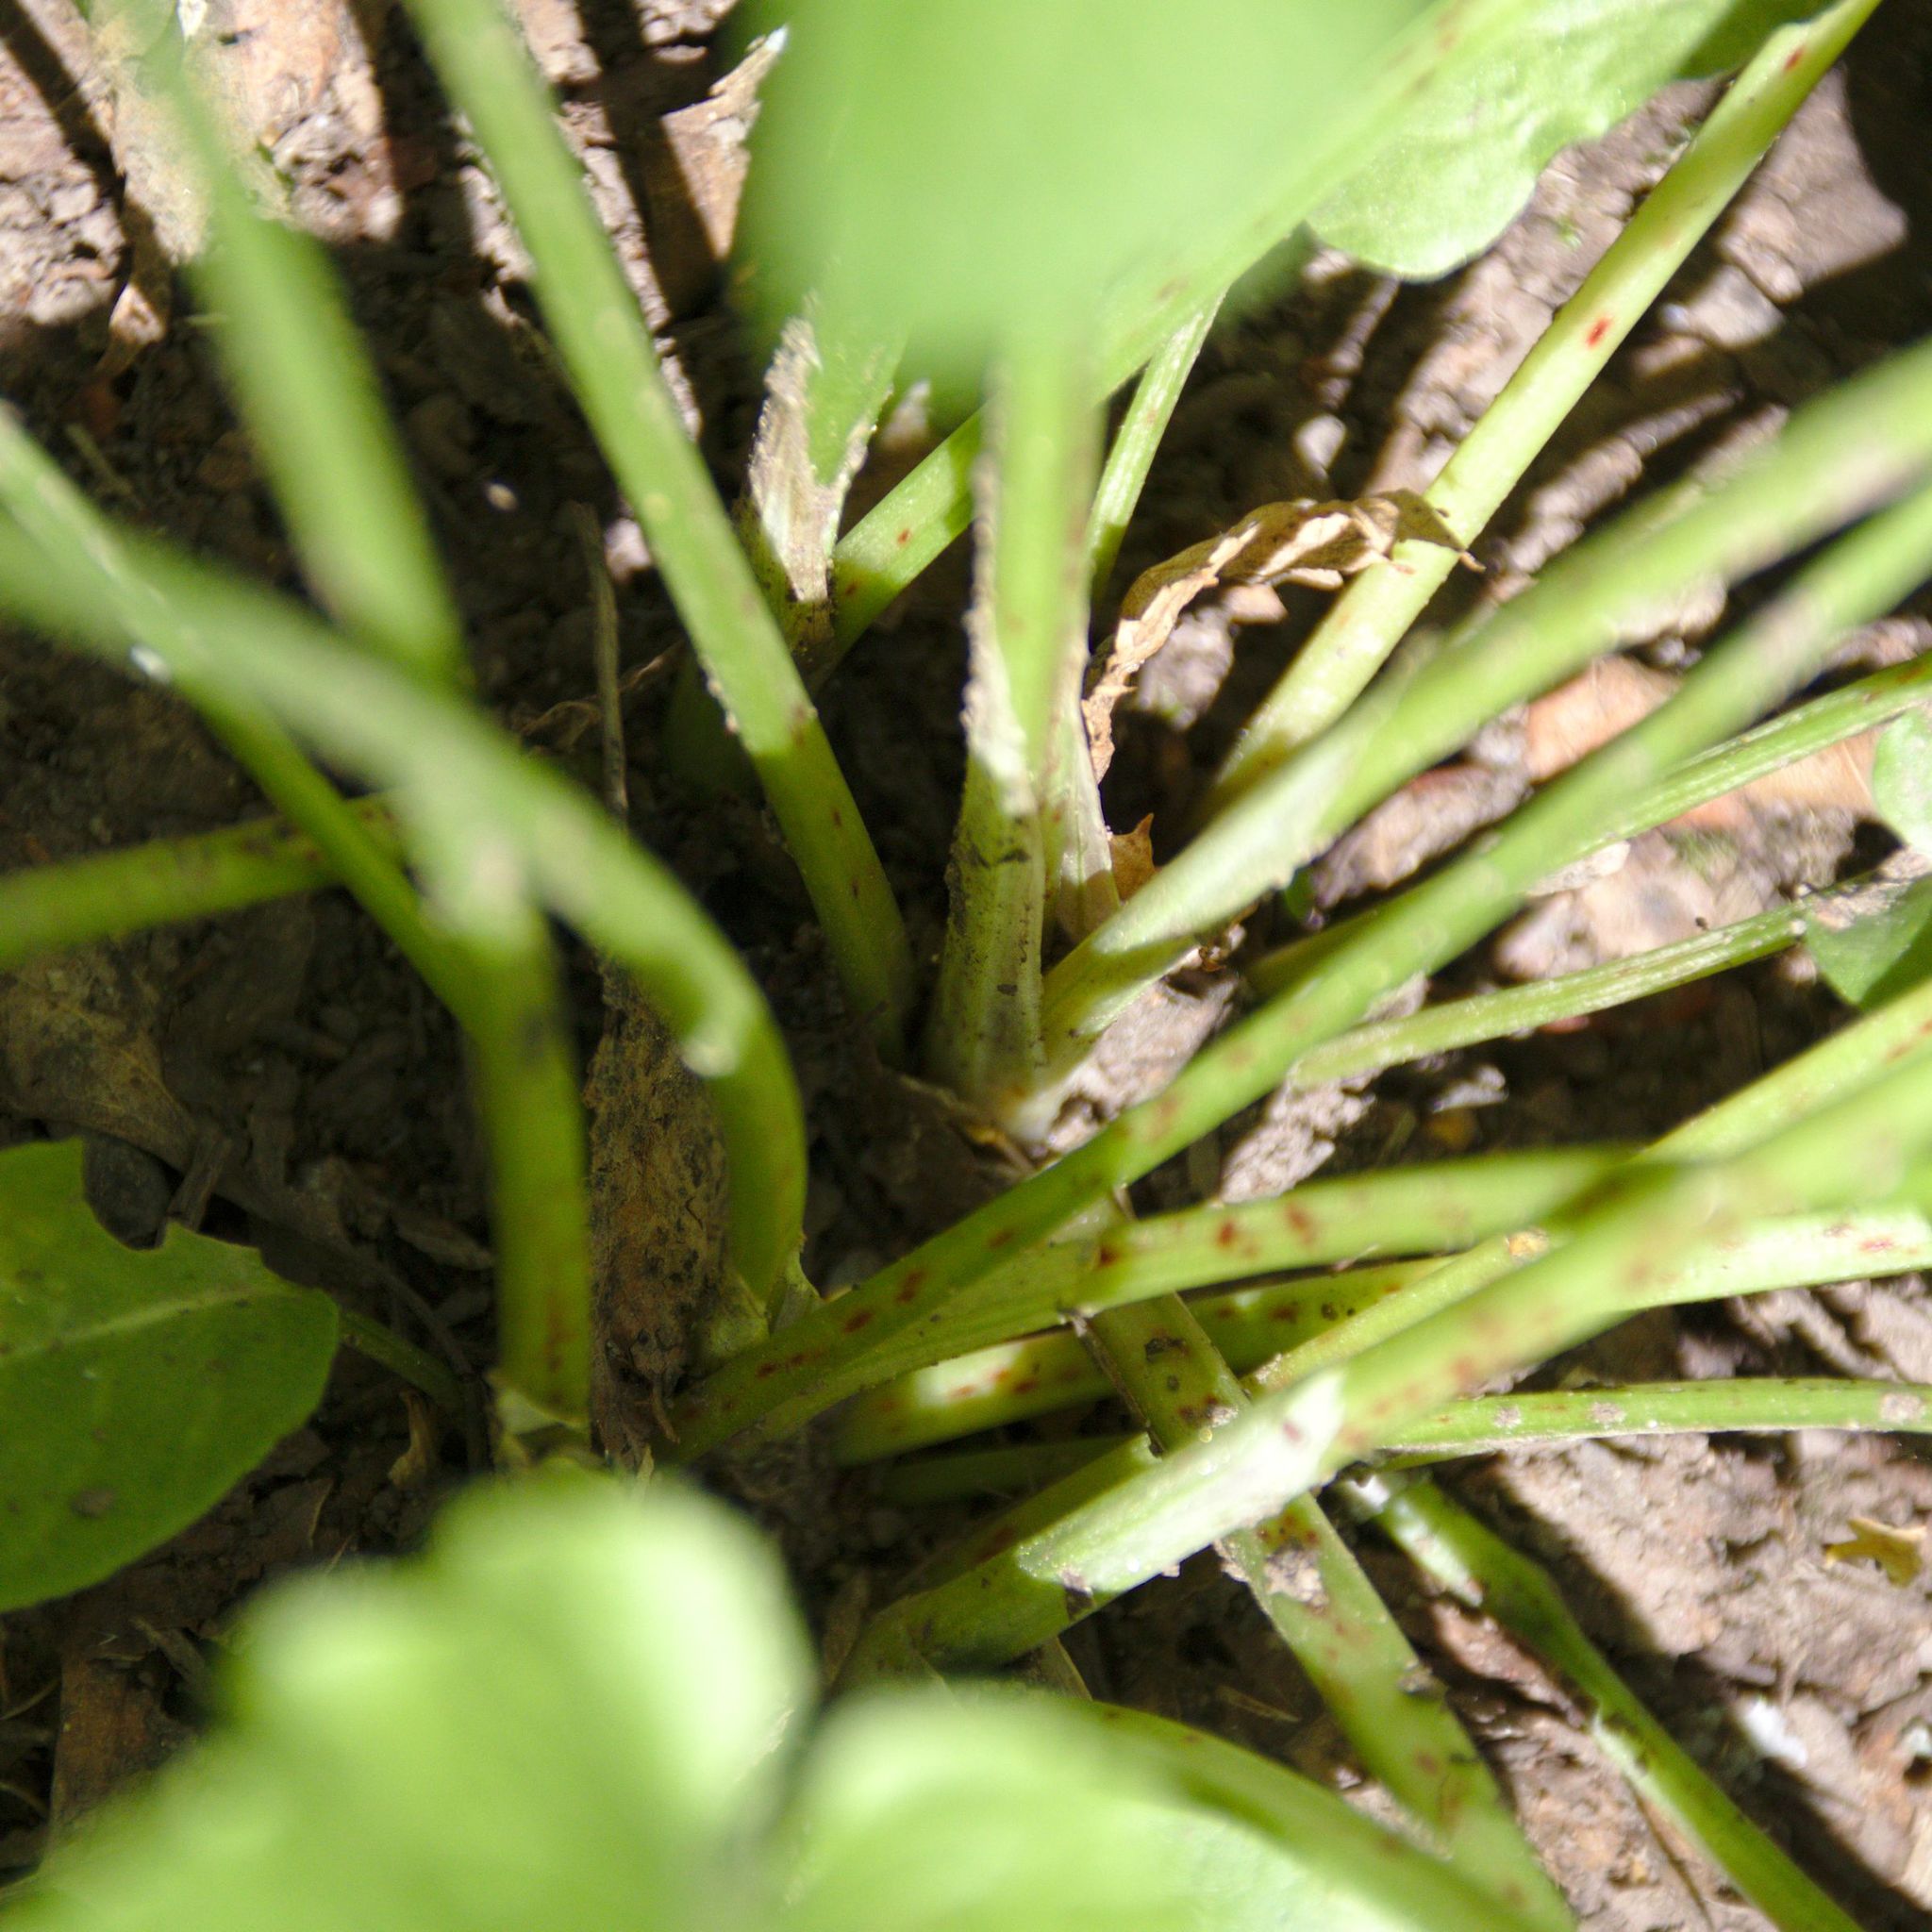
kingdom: Plantae
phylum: Tracheophyta
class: Magnoliopsida
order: Caryophyllales
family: Polygonaceae
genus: Rumex
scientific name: Rumex obtusifolius
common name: Bitter dock
